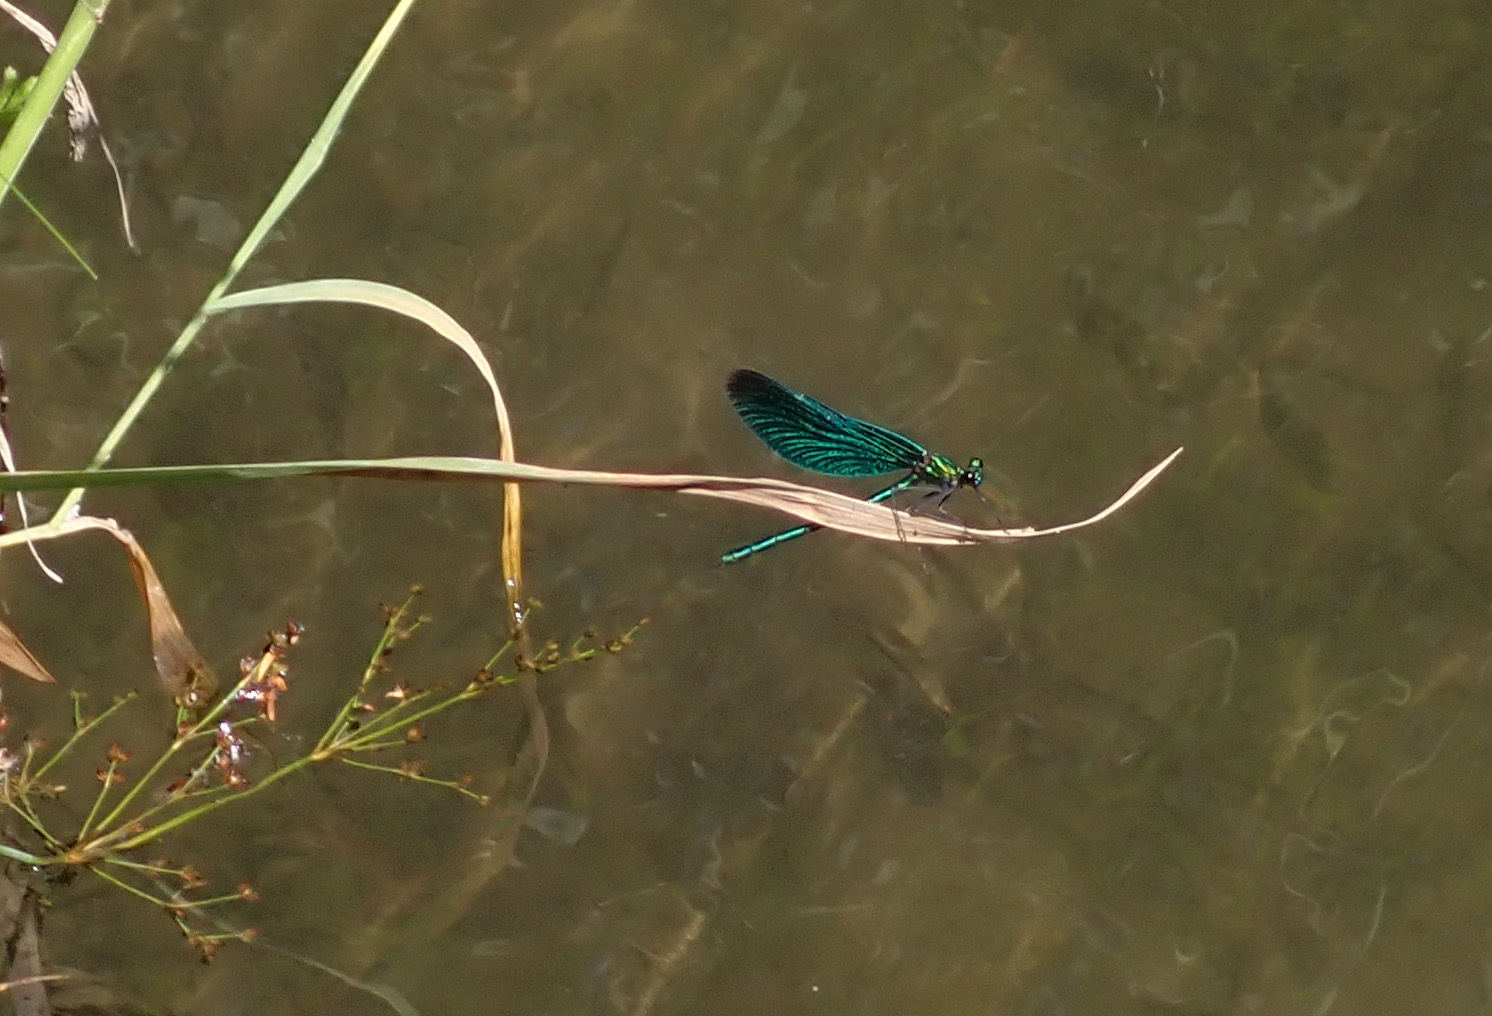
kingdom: Animalia
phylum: Arthropoda
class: Insecta
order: Odonata
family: Calopterygidae
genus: Calopteryx
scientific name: Calopteryx virgo
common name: Beautiful demoiselle
